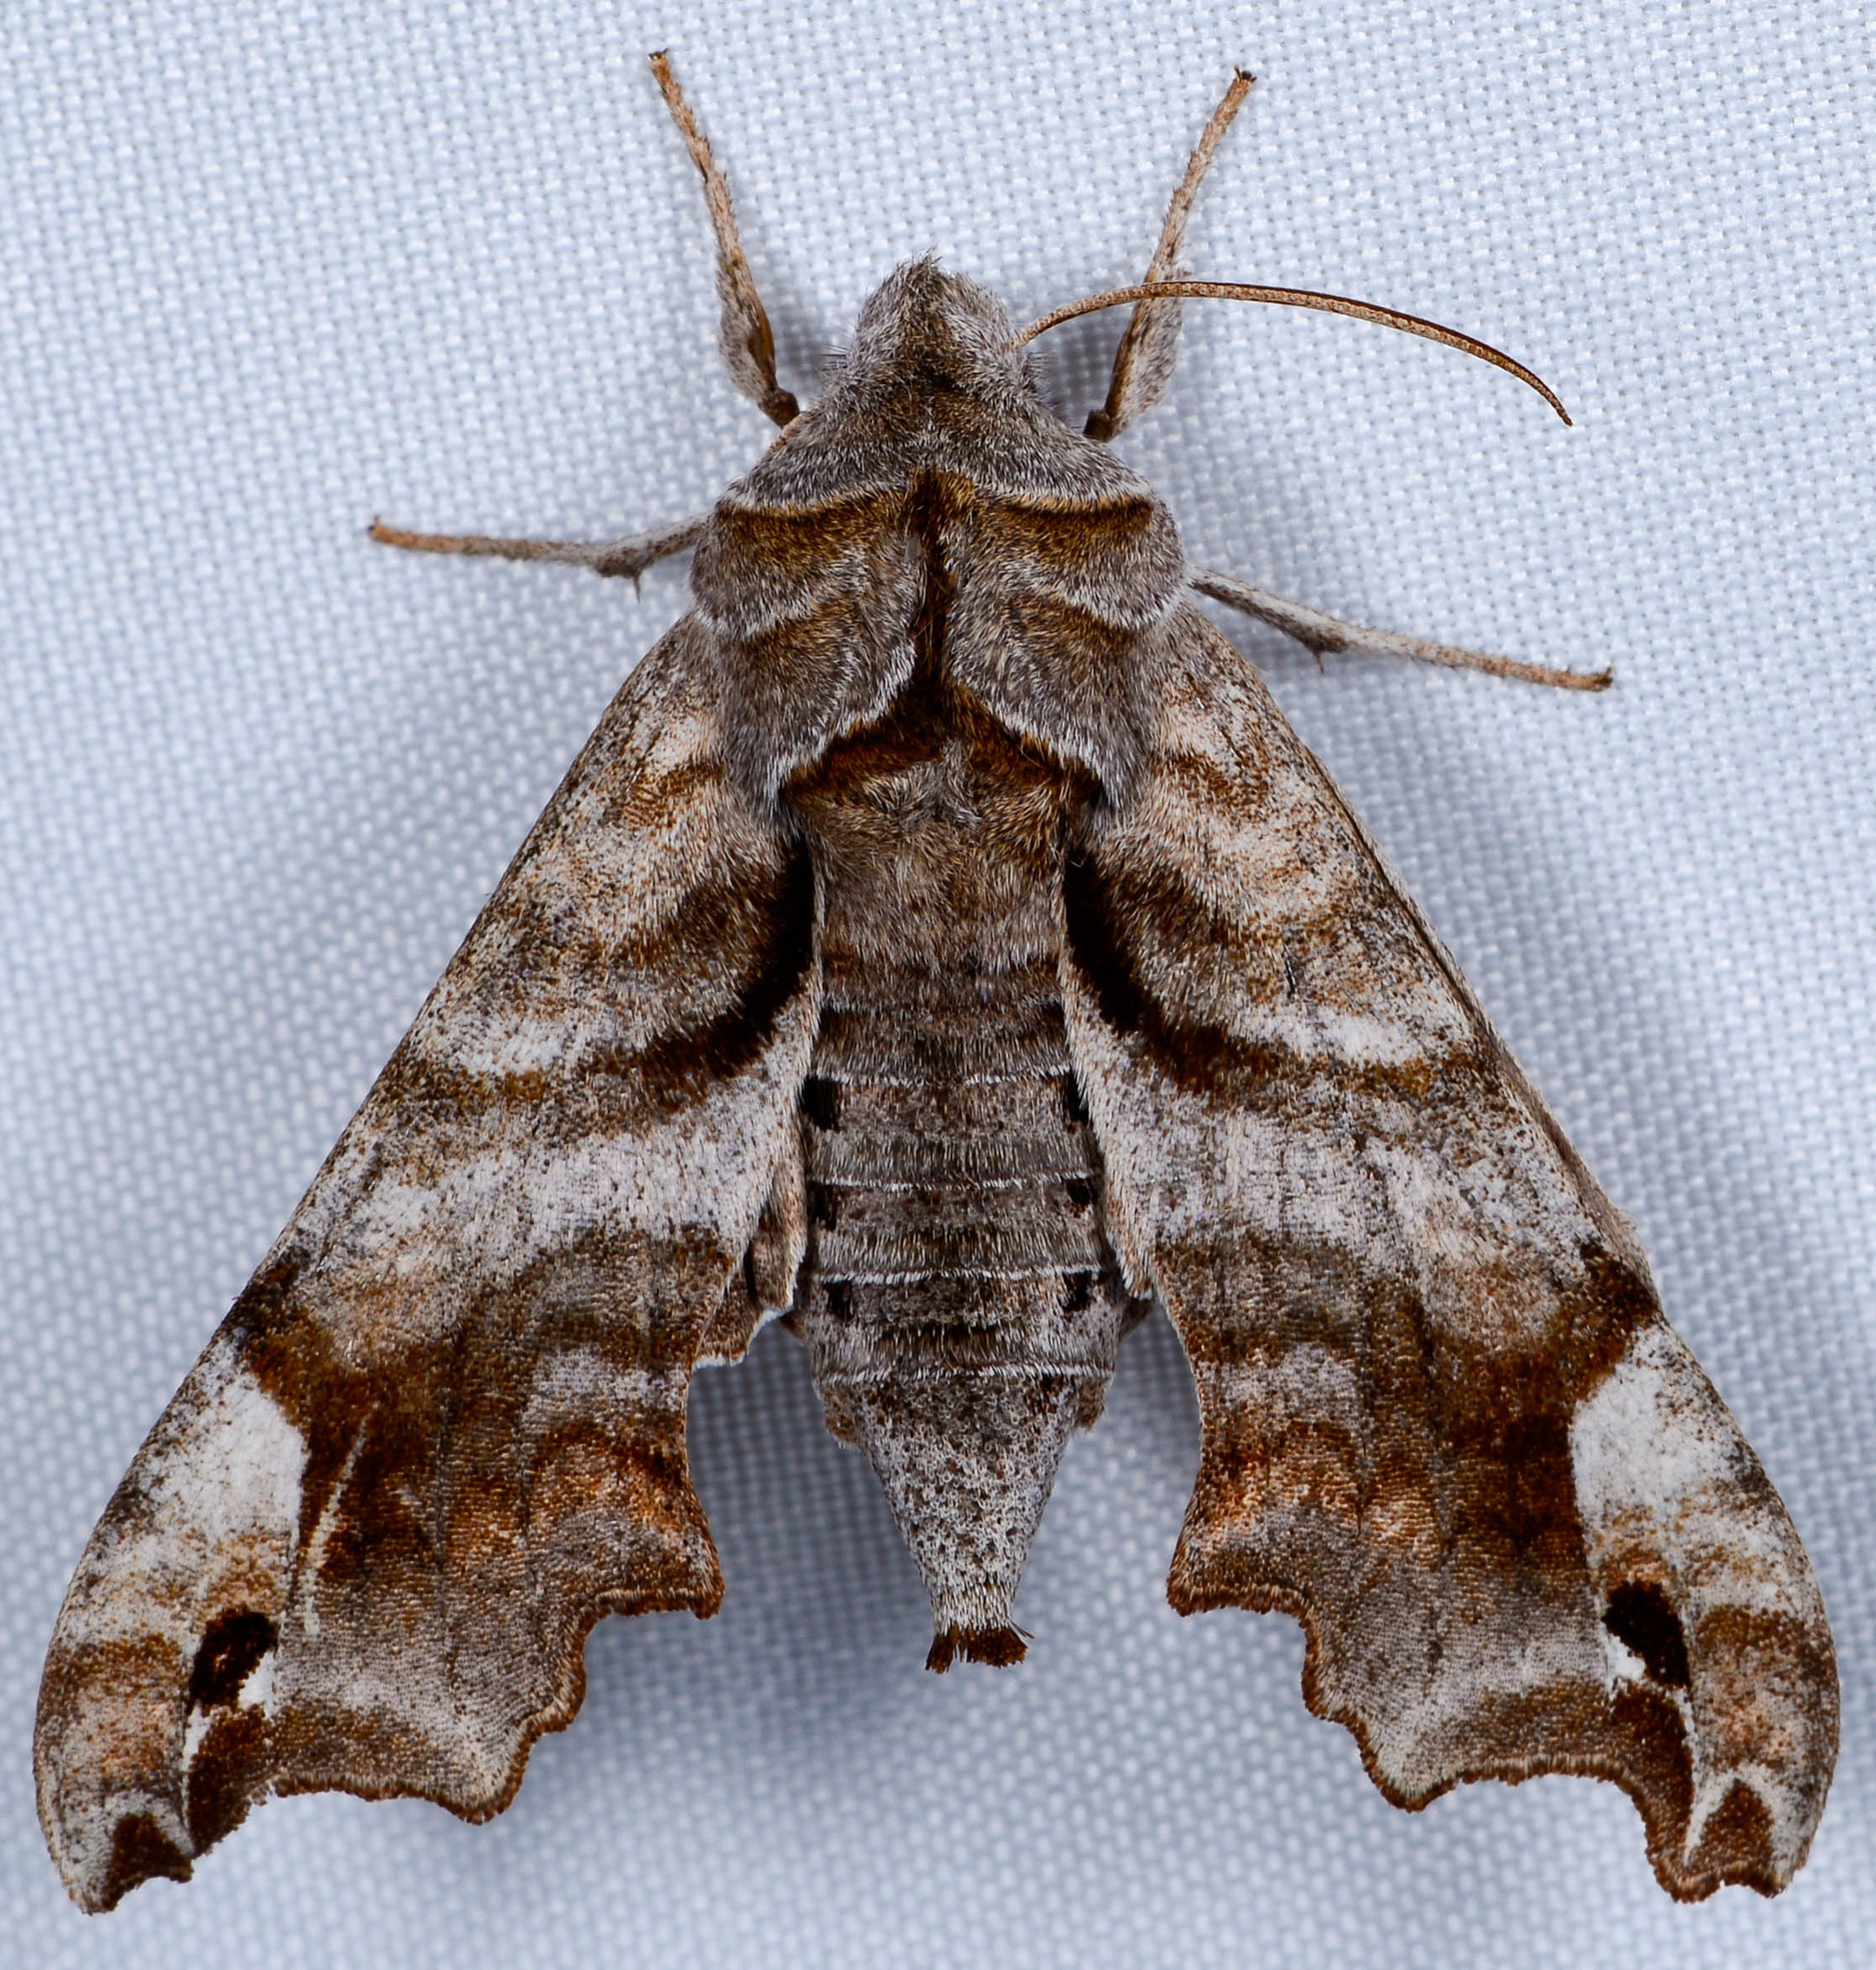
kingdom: Animalia
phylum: Arthropoda
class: Insecta
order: Lepidoptera
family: Sphingidae
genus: Deidamia
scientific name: Deidamia inscriptum
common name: Lettered sphinx
